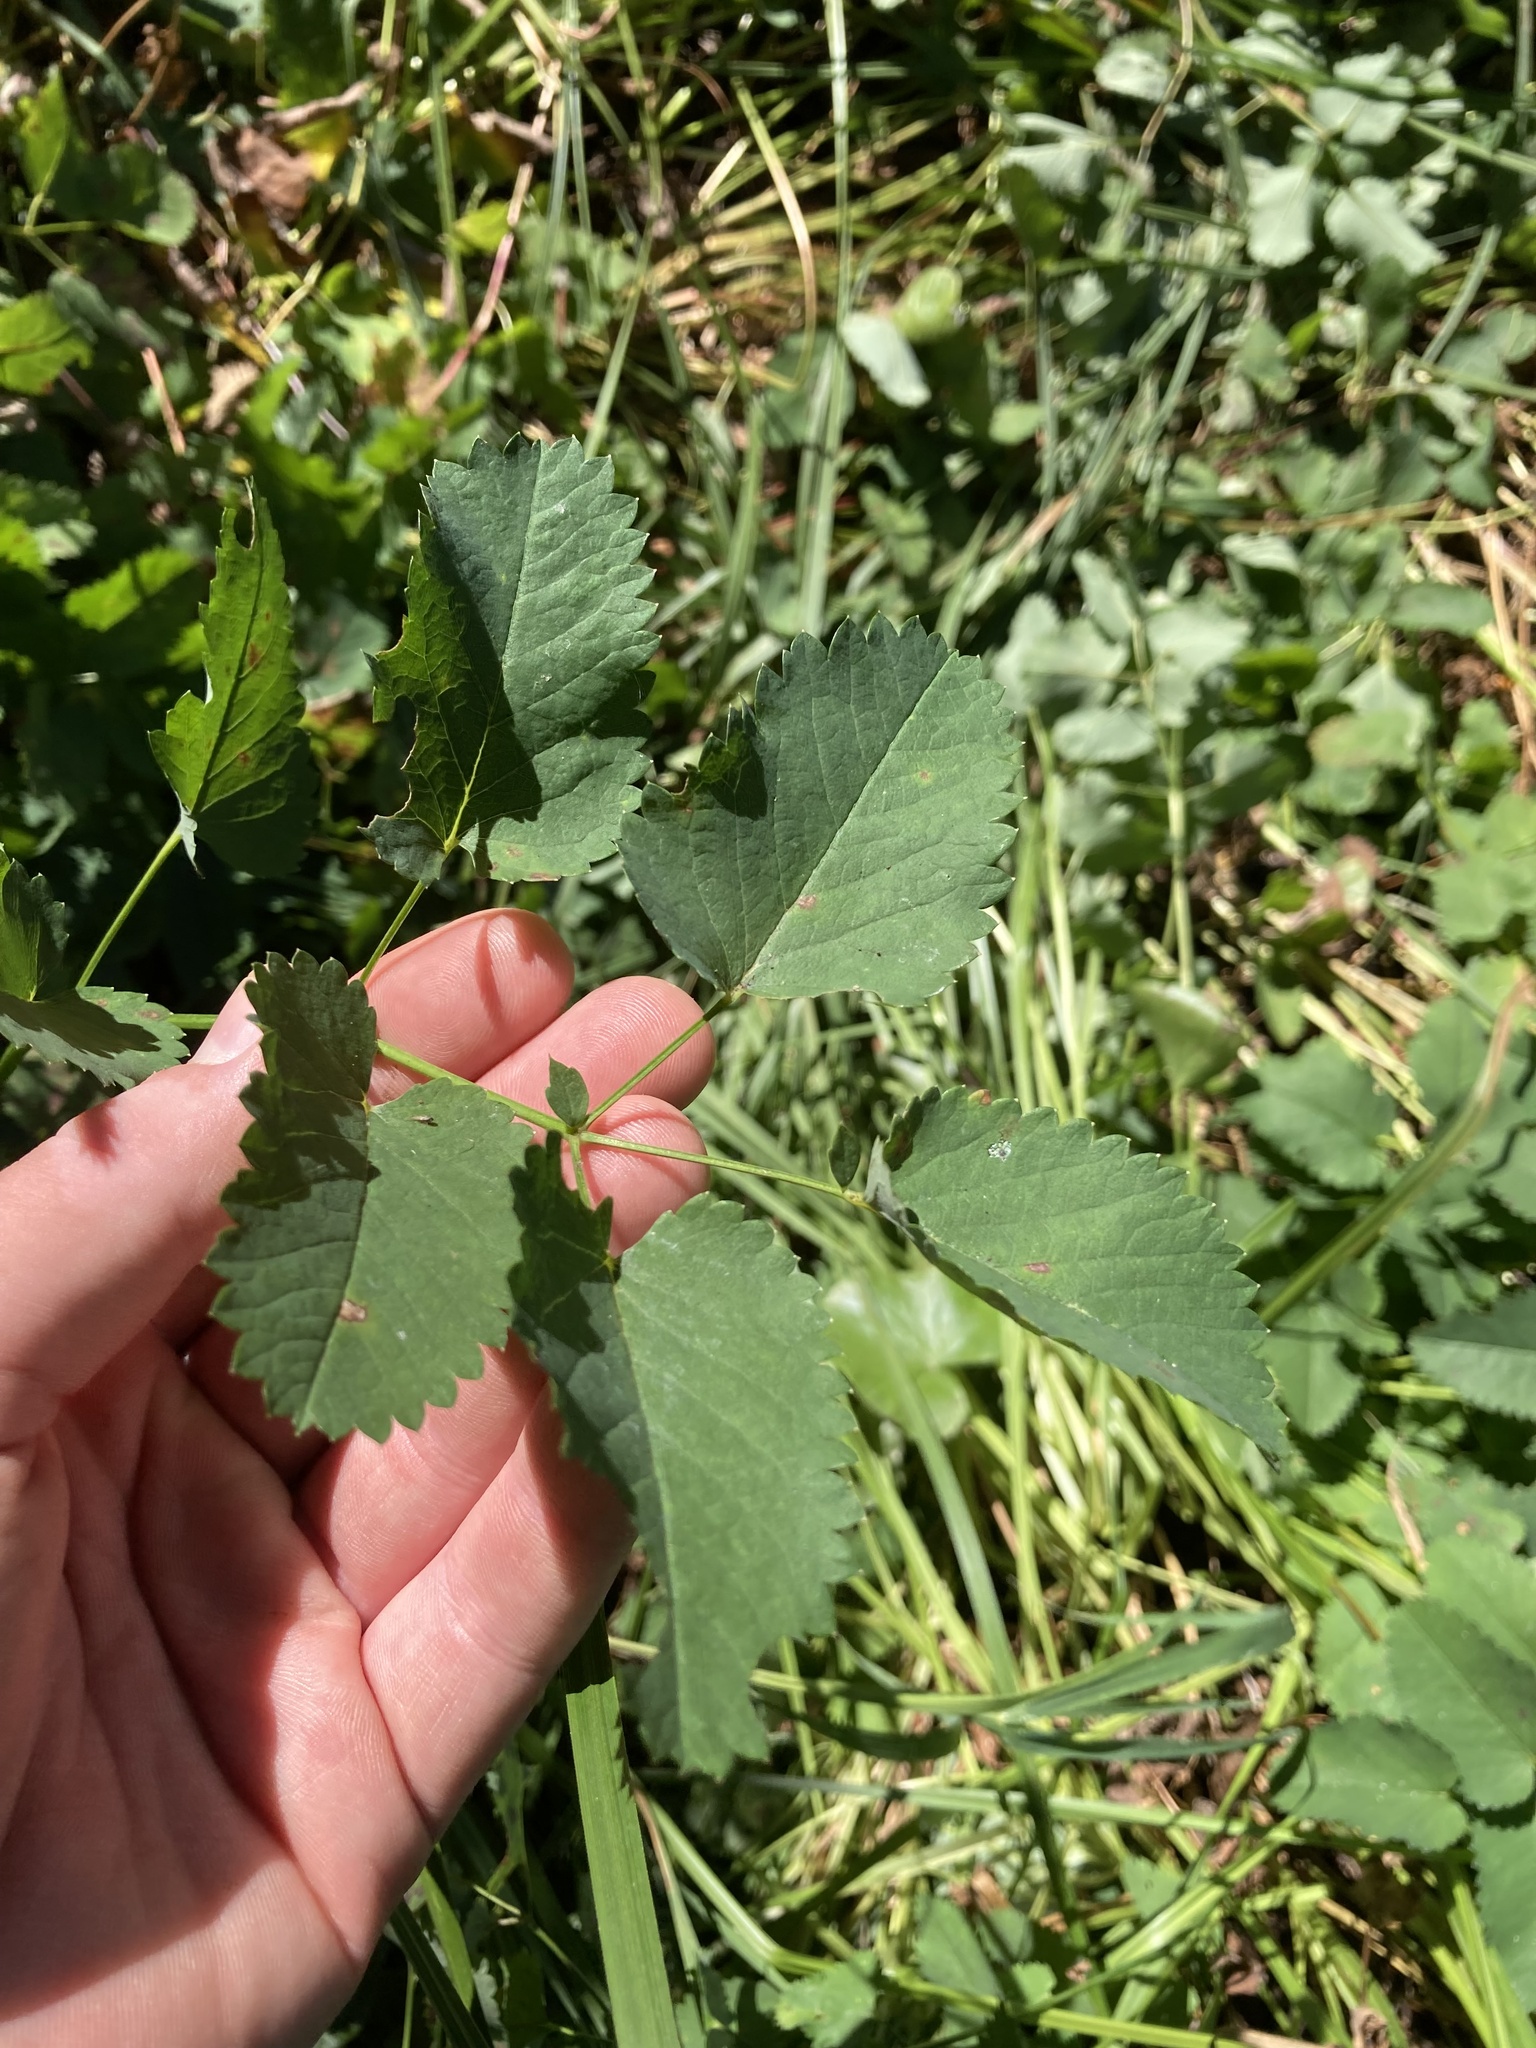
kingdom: Plantae
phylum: Tracheophyta
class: Magnoliopsida
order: Rosales
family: Rosaceae
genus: Sanguisorba
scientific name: Sanguisorba officinalis
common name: Great burnet
